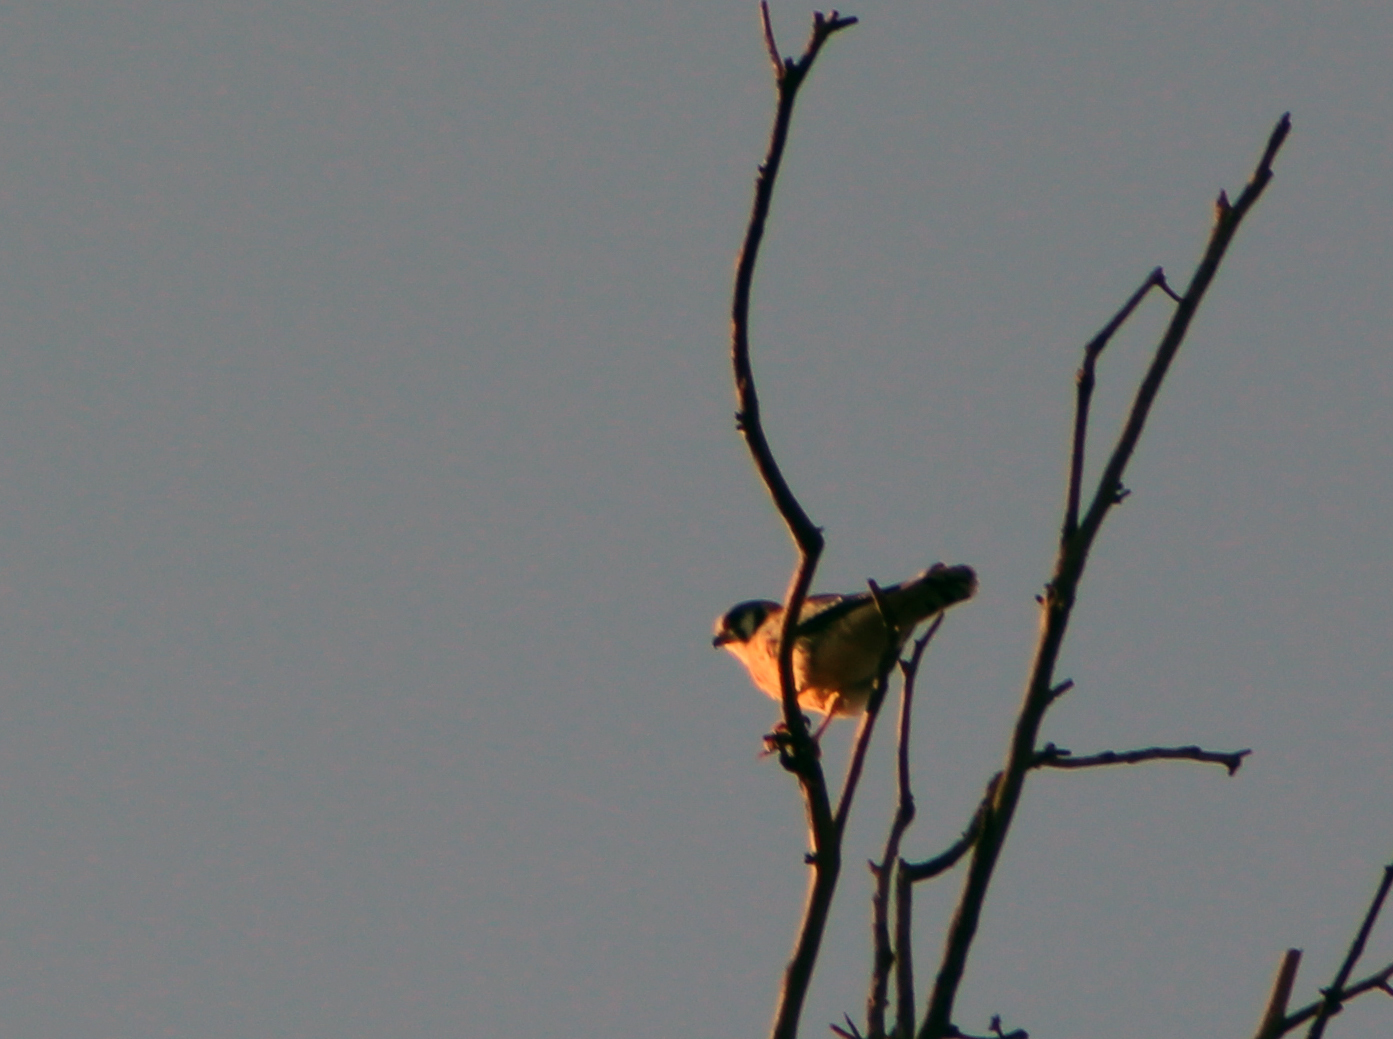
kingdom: Animalia
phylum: Chordata
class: Aves
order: Falconiformes
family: Falconidae
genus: Falco
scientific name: Falco sparverius
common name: American kestrel
